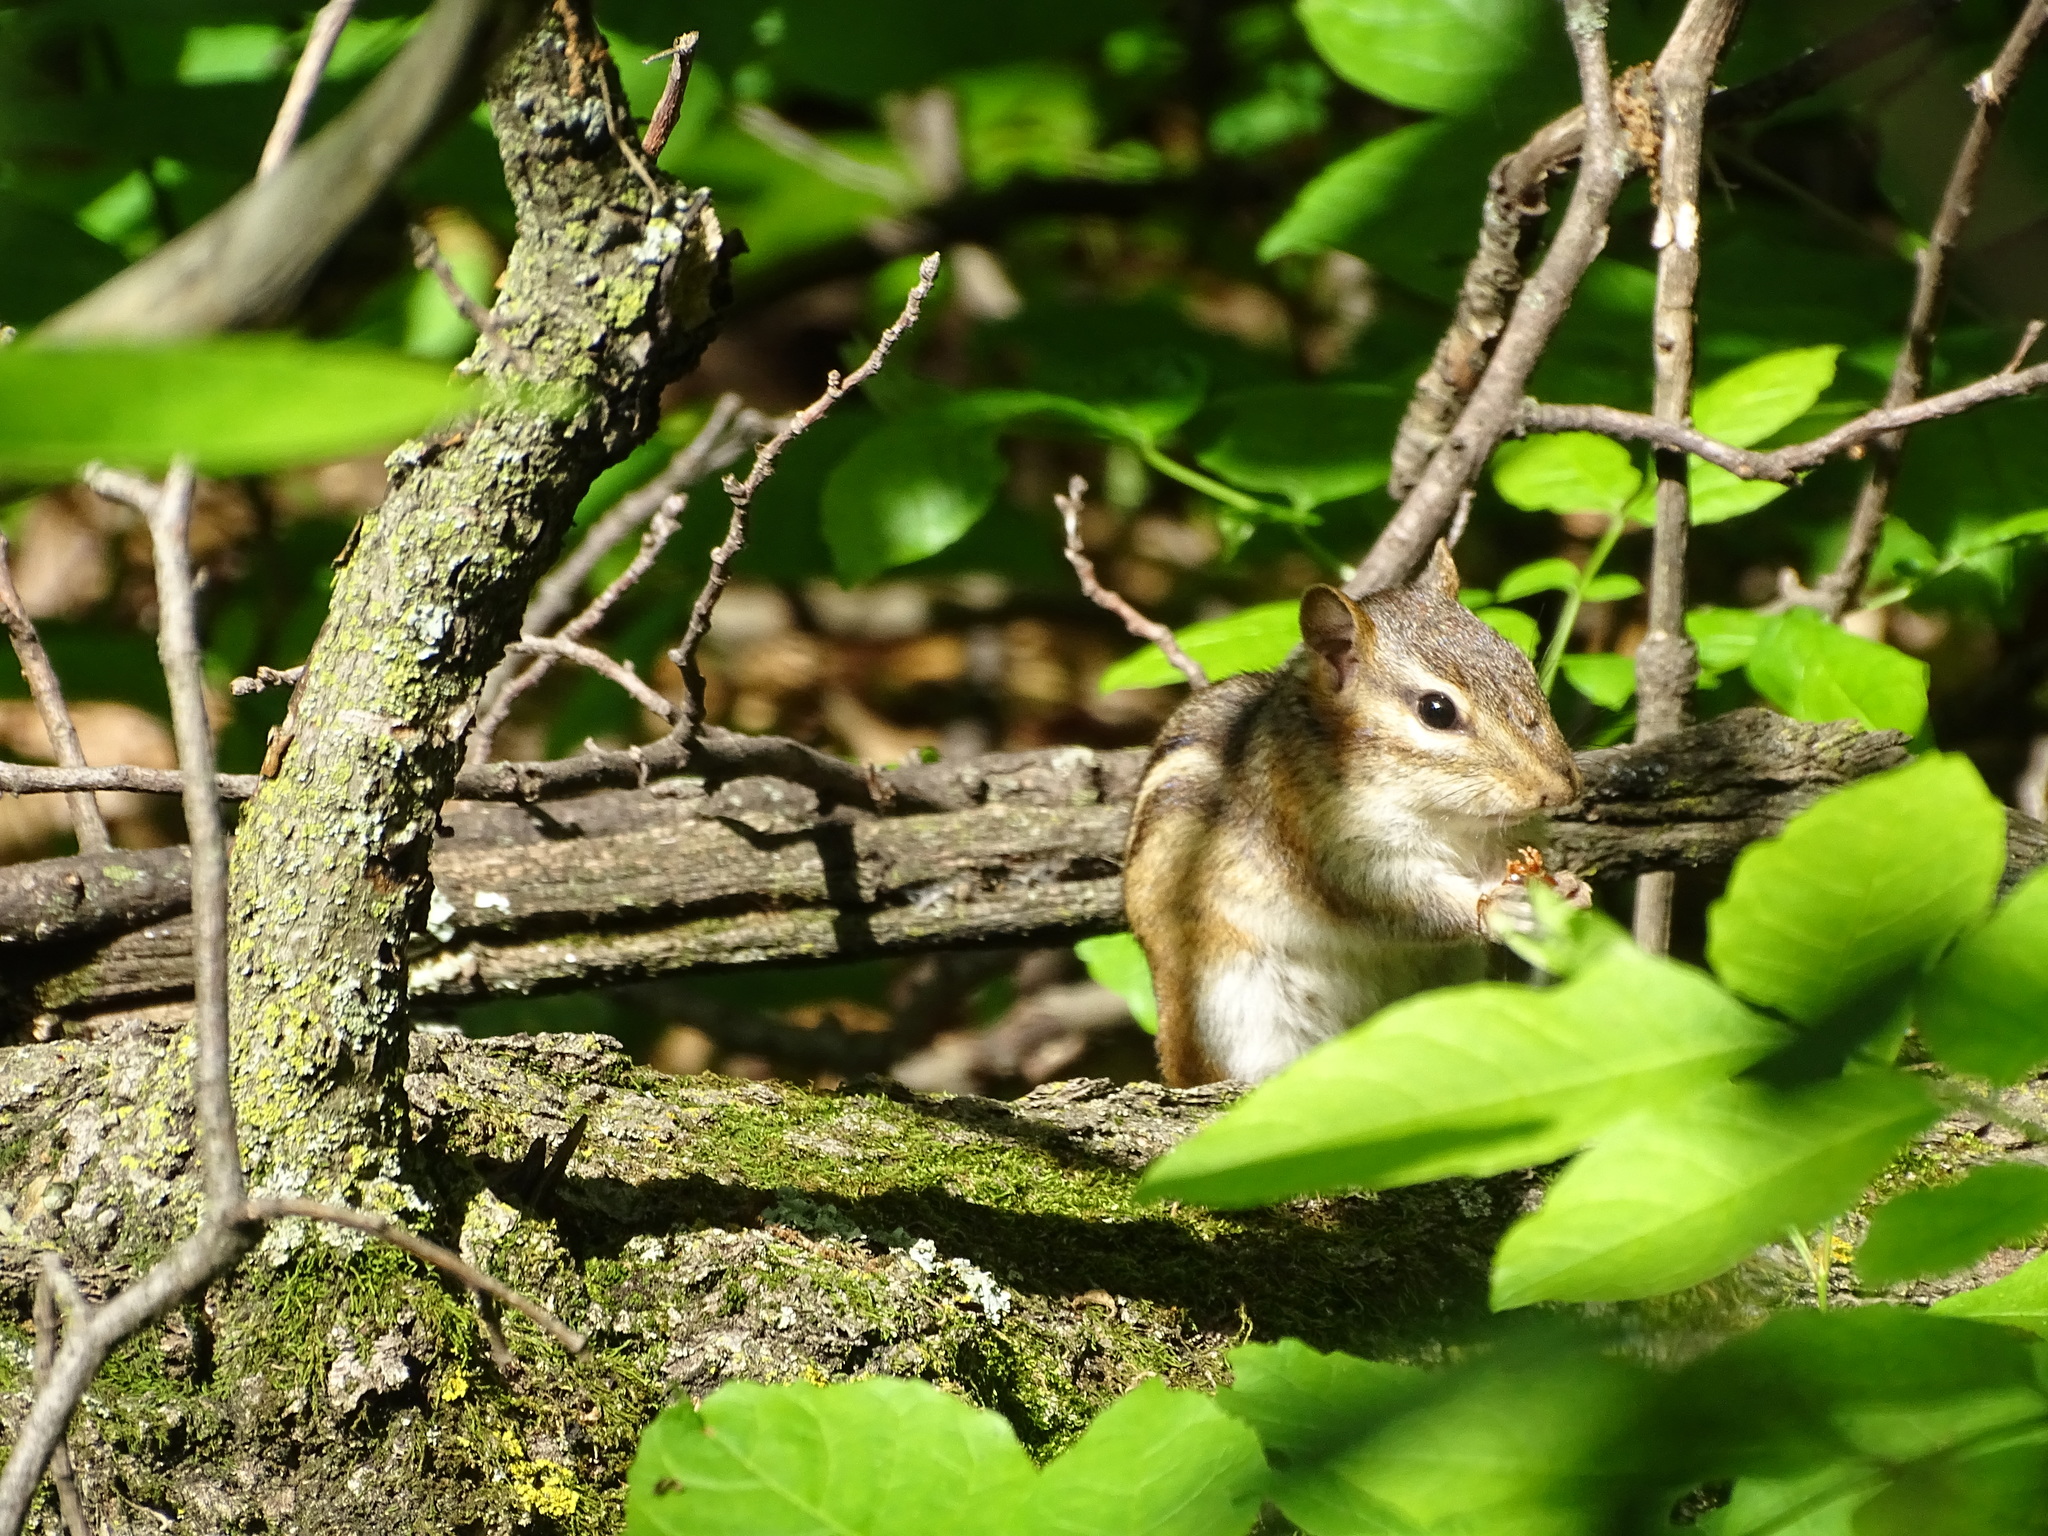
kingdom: Animalia
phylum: Chordata
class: Mammalia
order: Rodentia
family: Sciuridae
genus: Tamias
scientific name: Tamias striatus
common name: Eastern chipmunk
